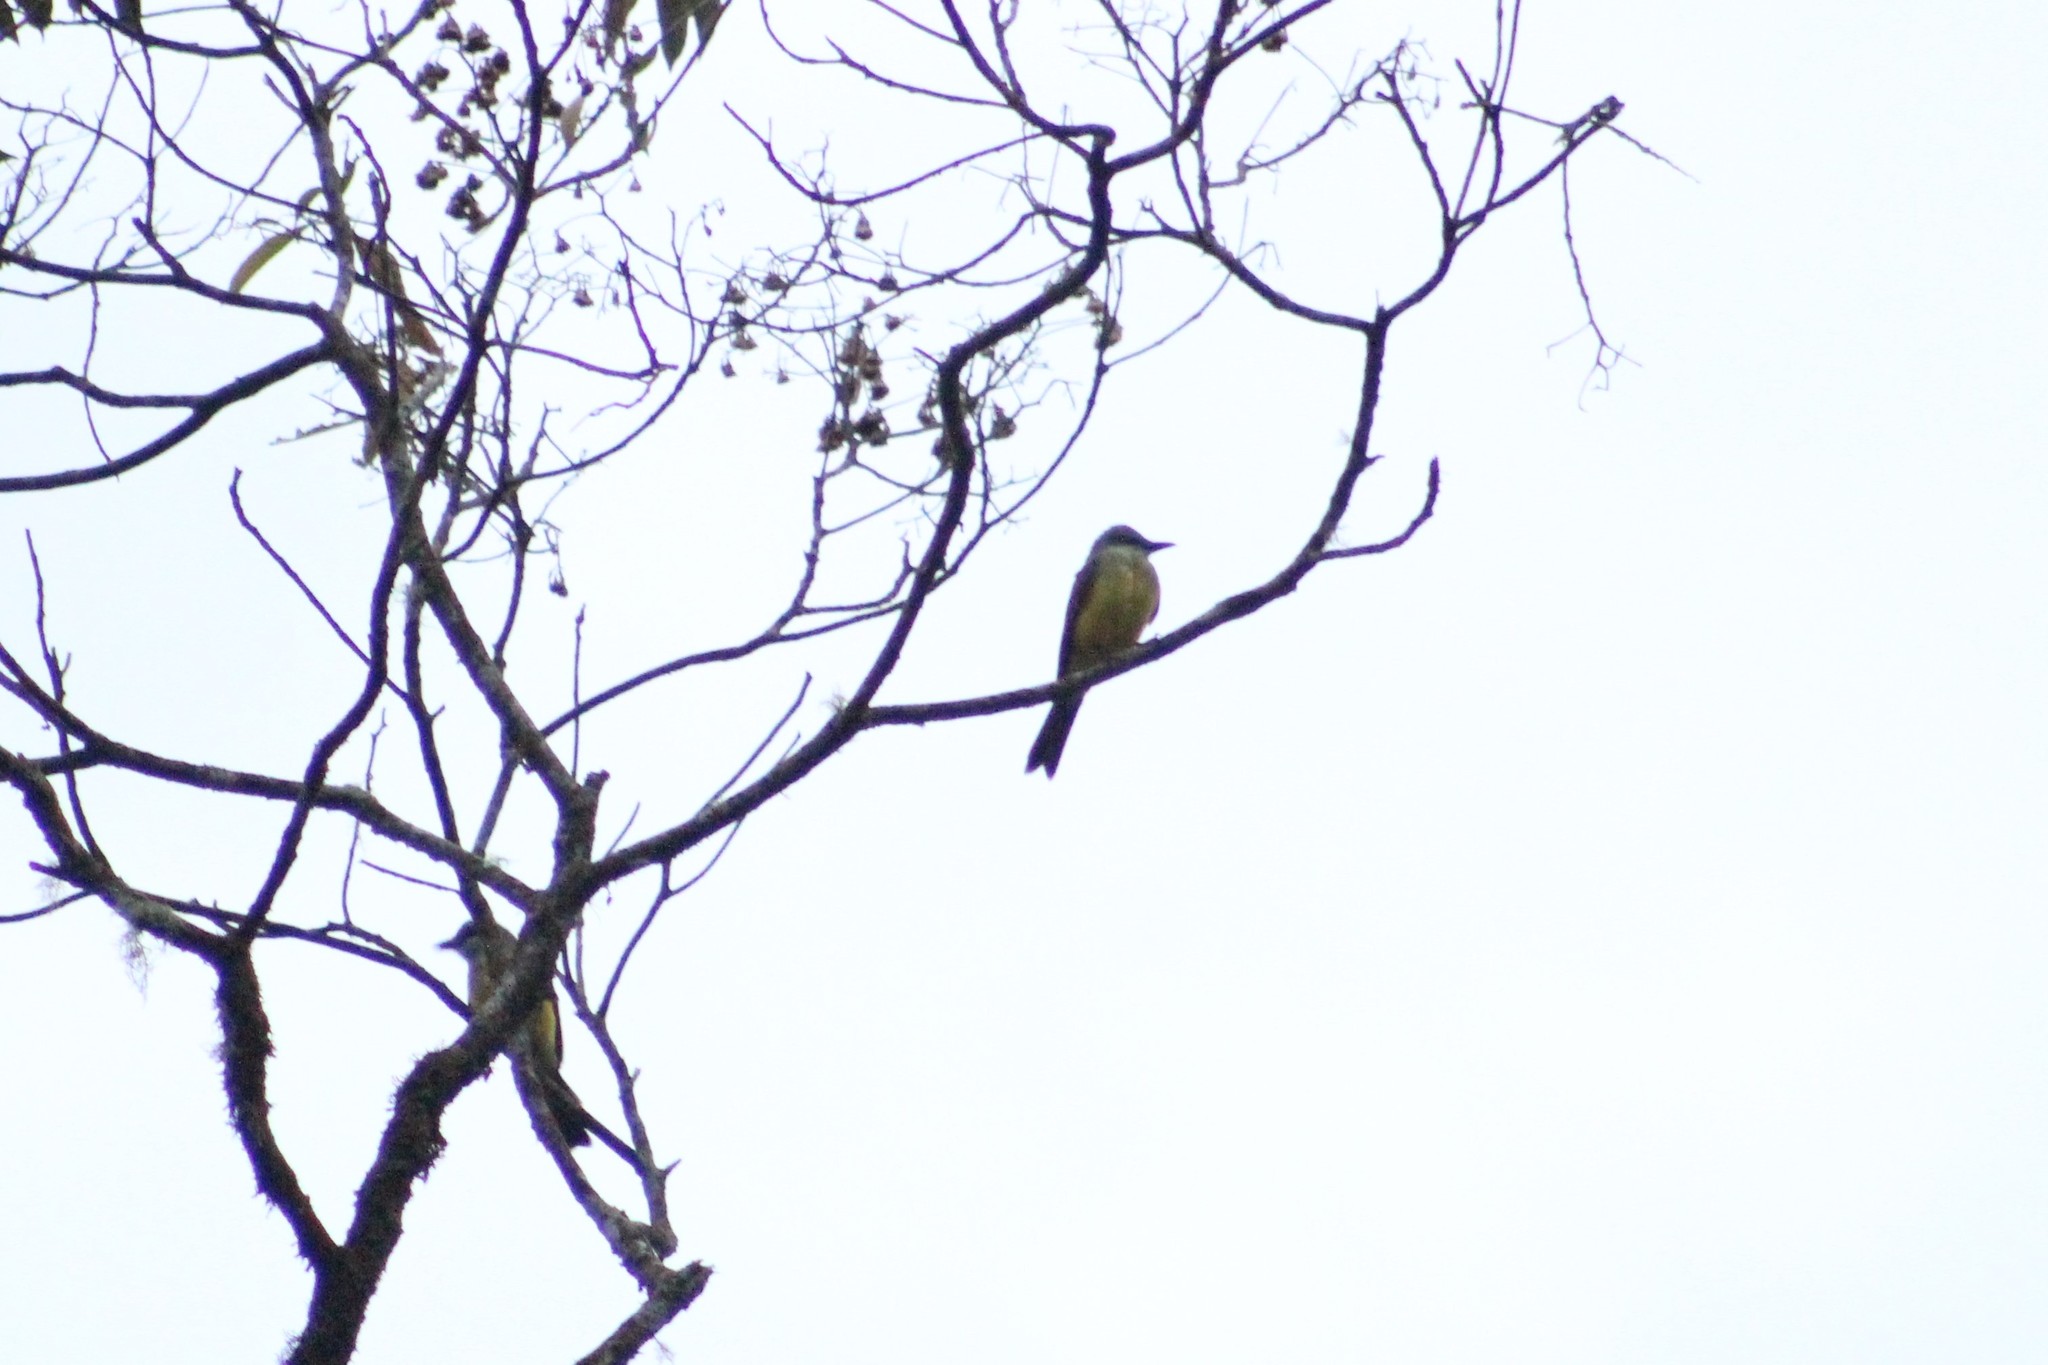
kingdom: Animalia
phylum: Chordata
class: Aves
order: Passeriformes
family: Tyrannidae
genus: Tyrannus
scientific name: Tyrannus melancholicus
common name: Tropical kingbird
